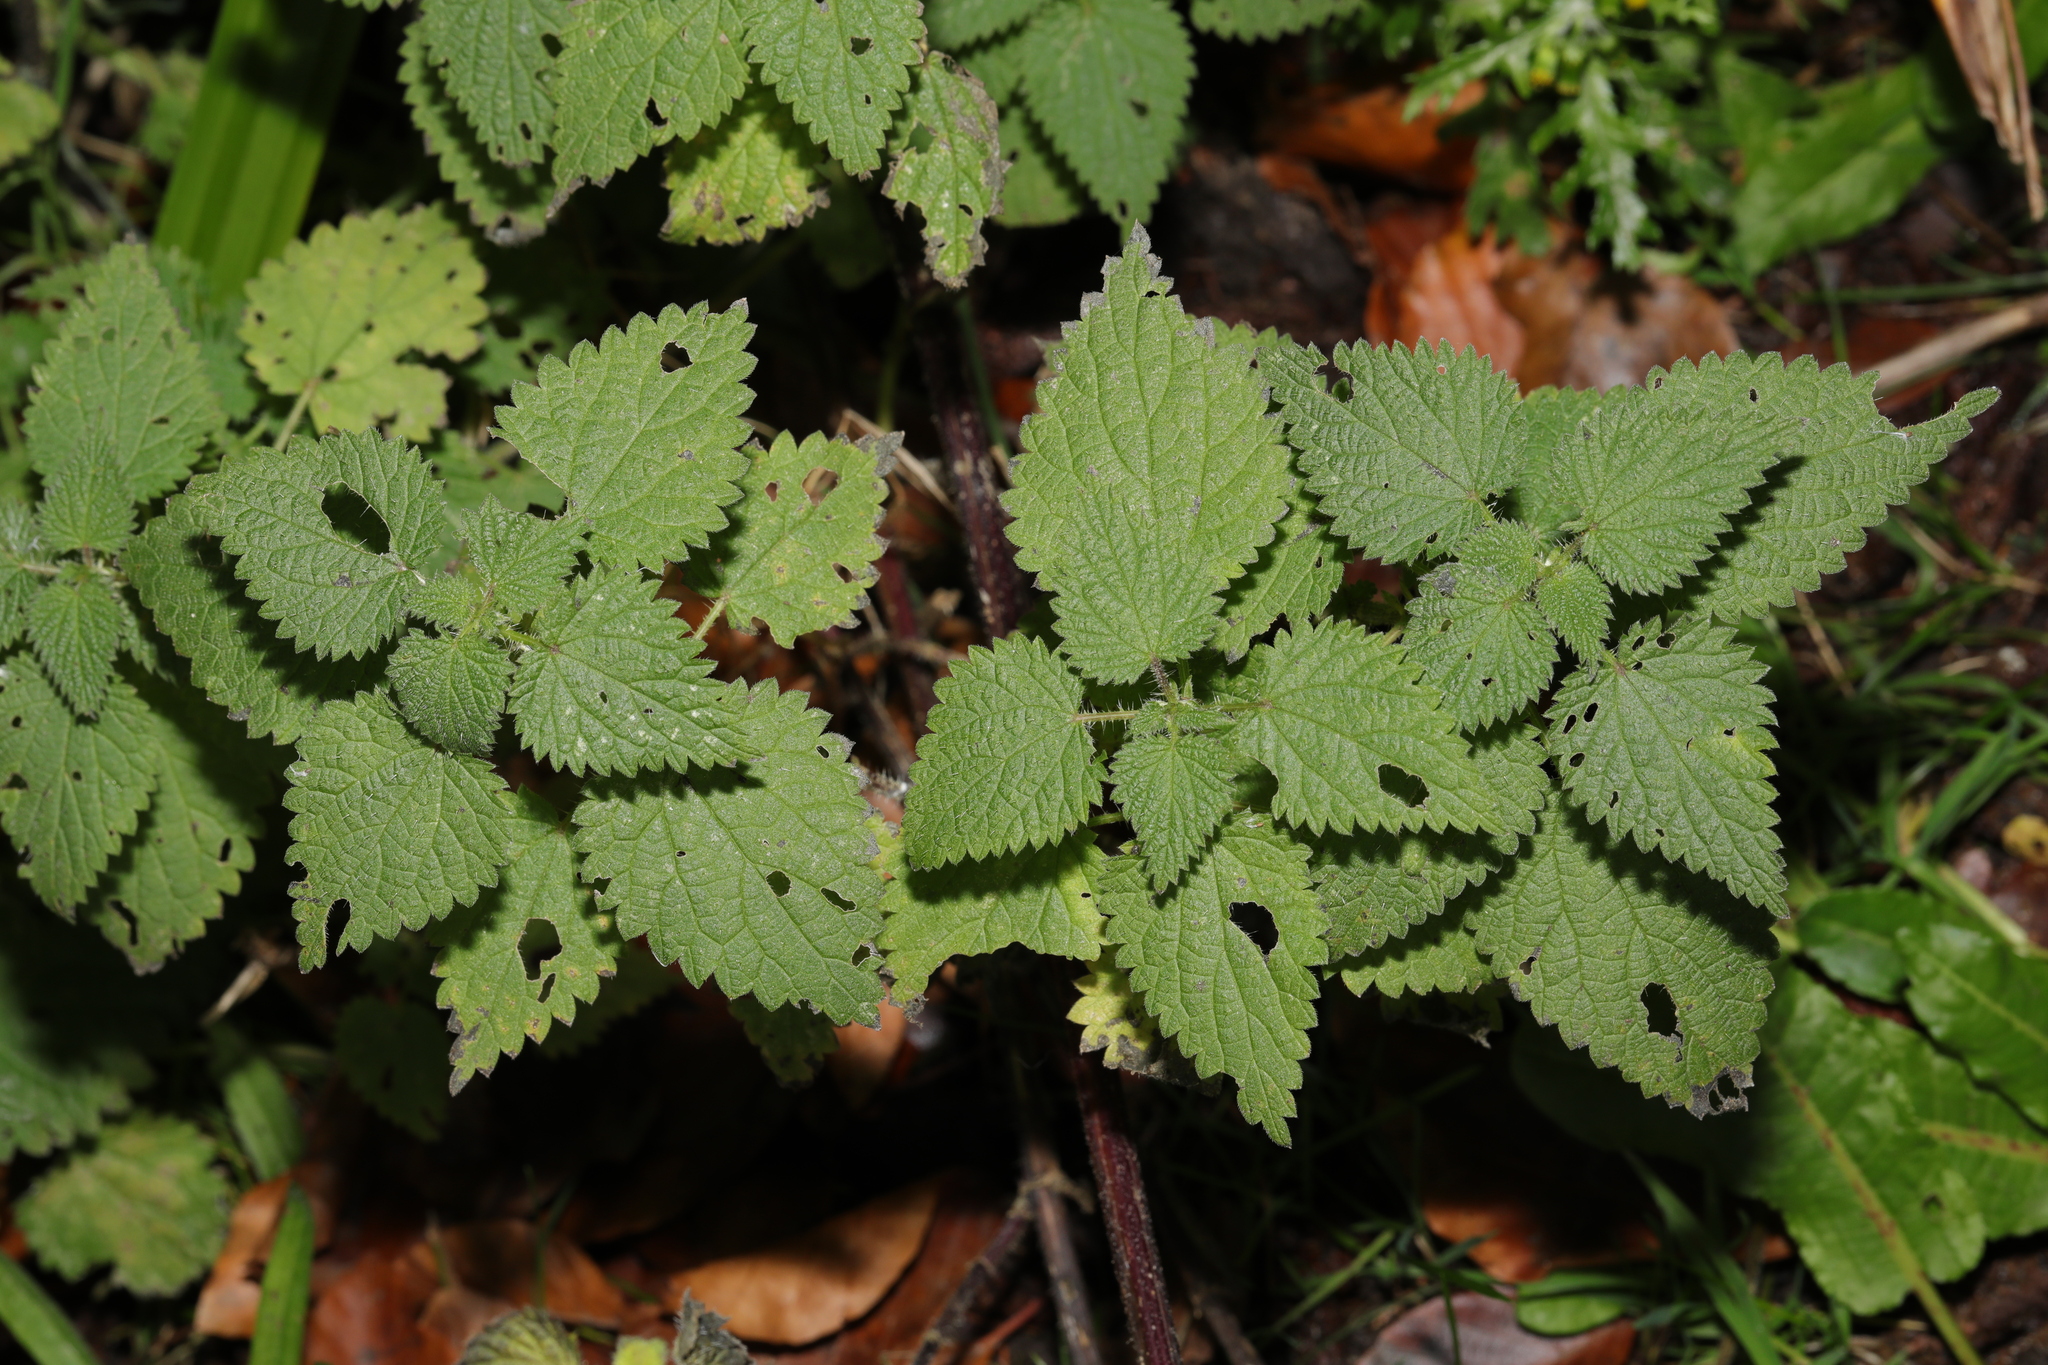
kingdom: Plantae
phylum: Tracheophyta
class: Magnoliopsida
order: Rosales
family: Urticaceae
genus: Urtica
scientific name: Urtica dioica
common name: Common nettle
